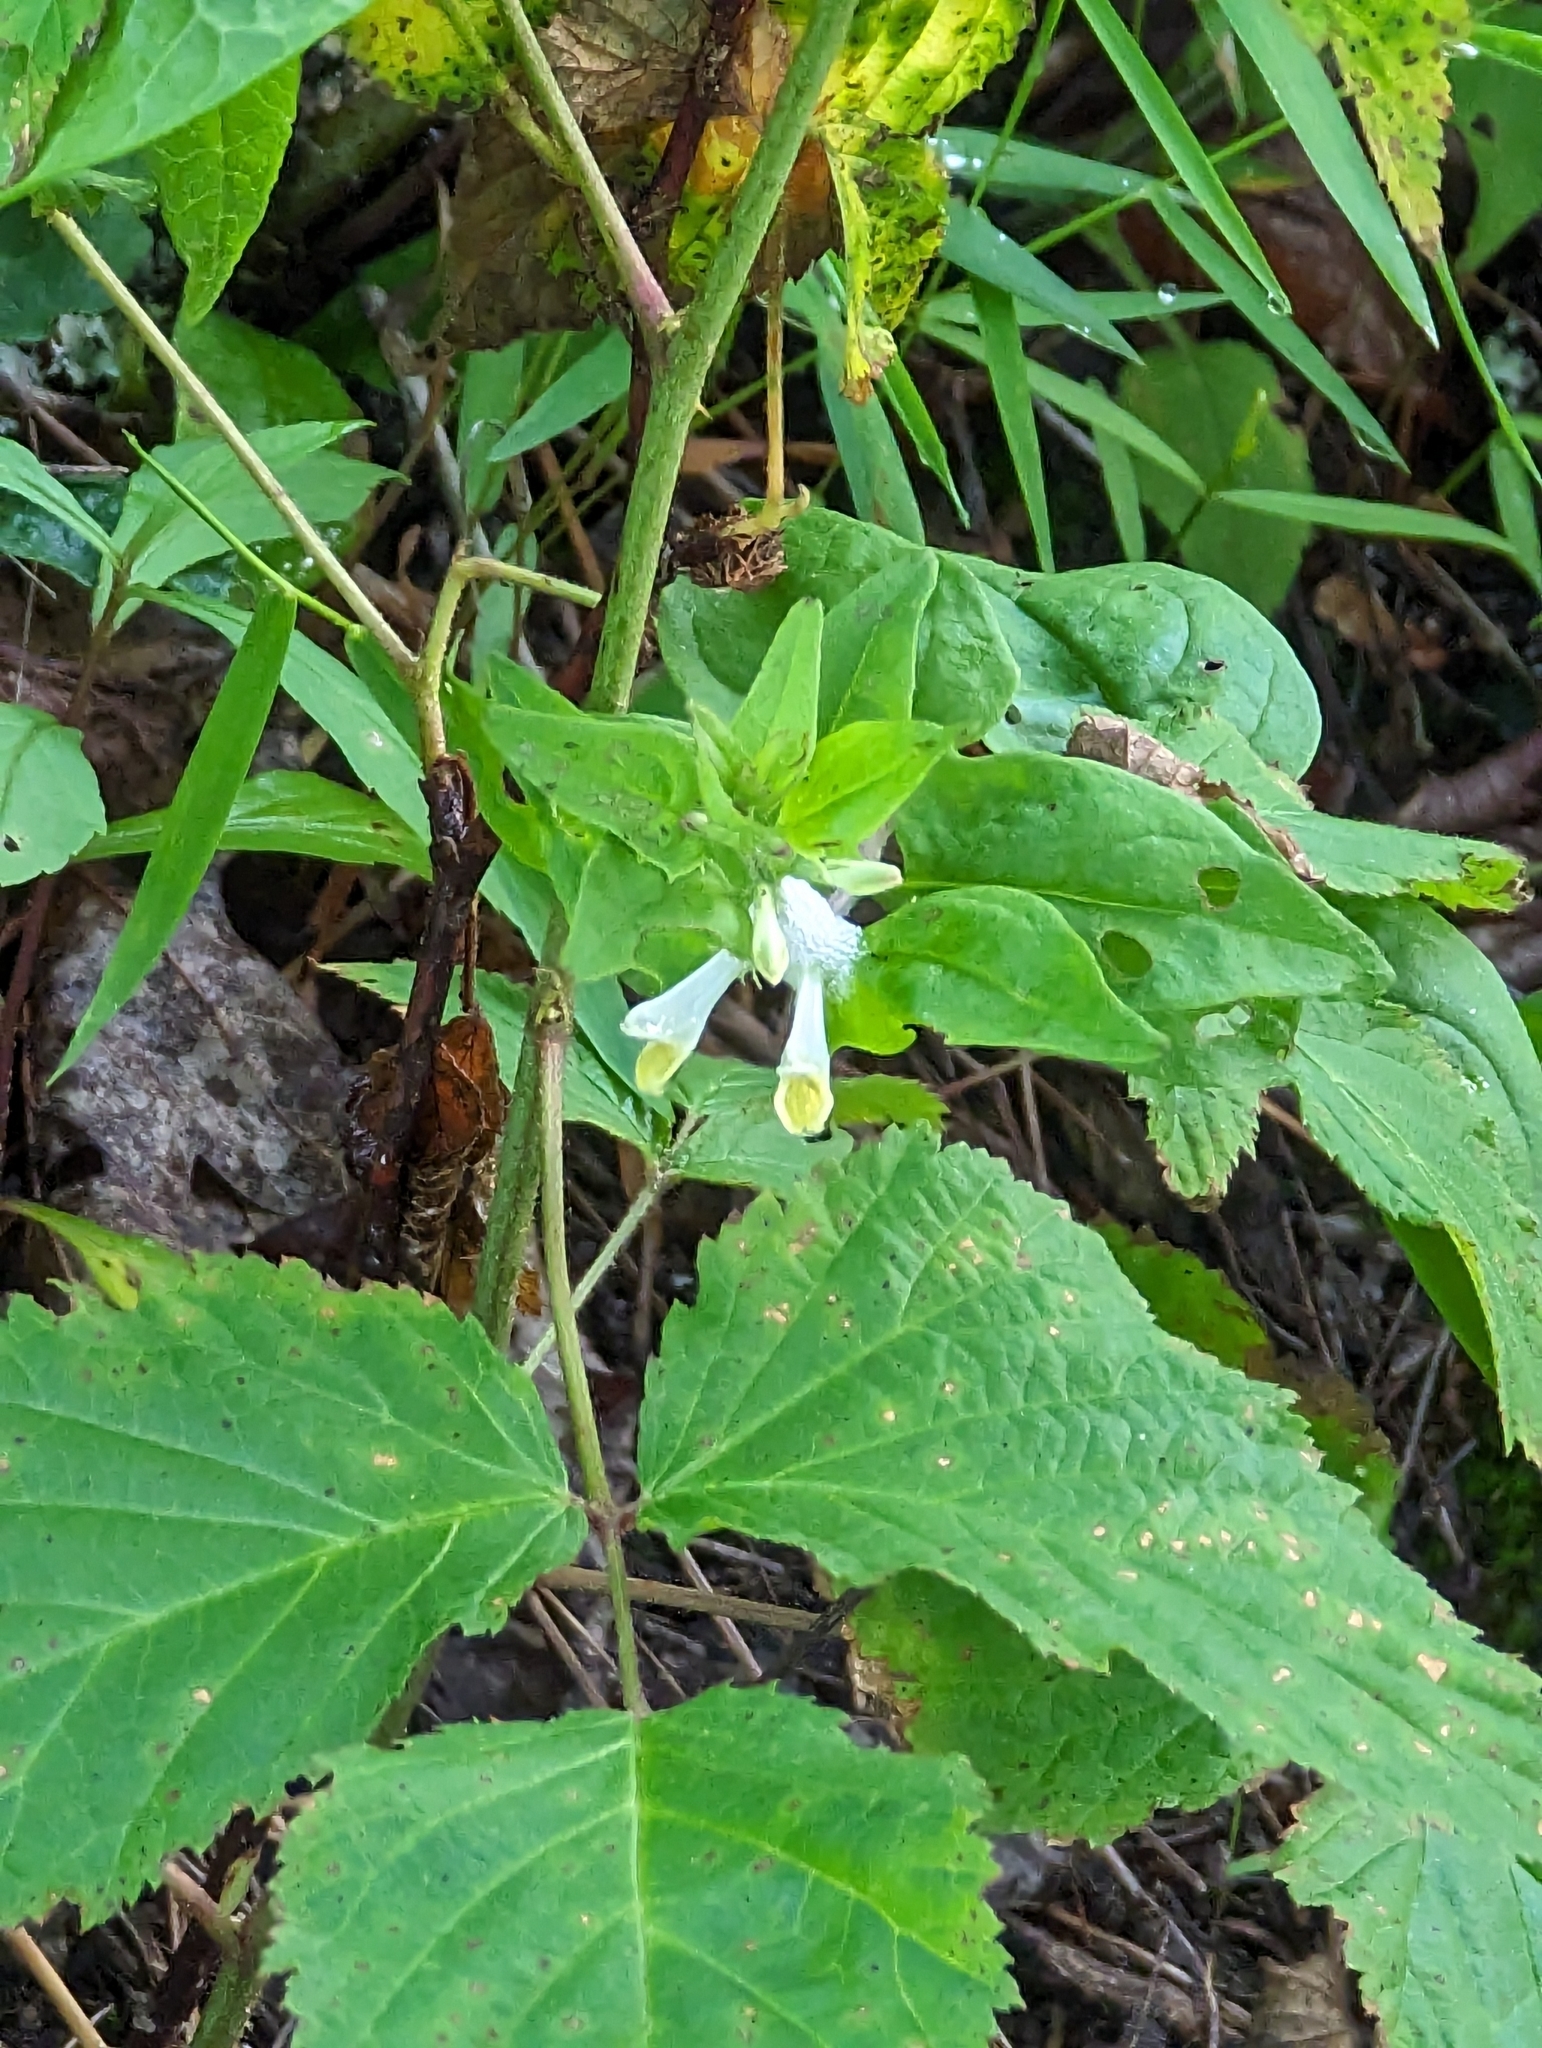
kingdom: Plantae
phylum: Tracheophyta
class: Magnoliopsida
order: Lamiales
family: Orobanchaceae
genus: Melampyrum
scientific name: Melampyrum lineare
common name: American cow-wheat
